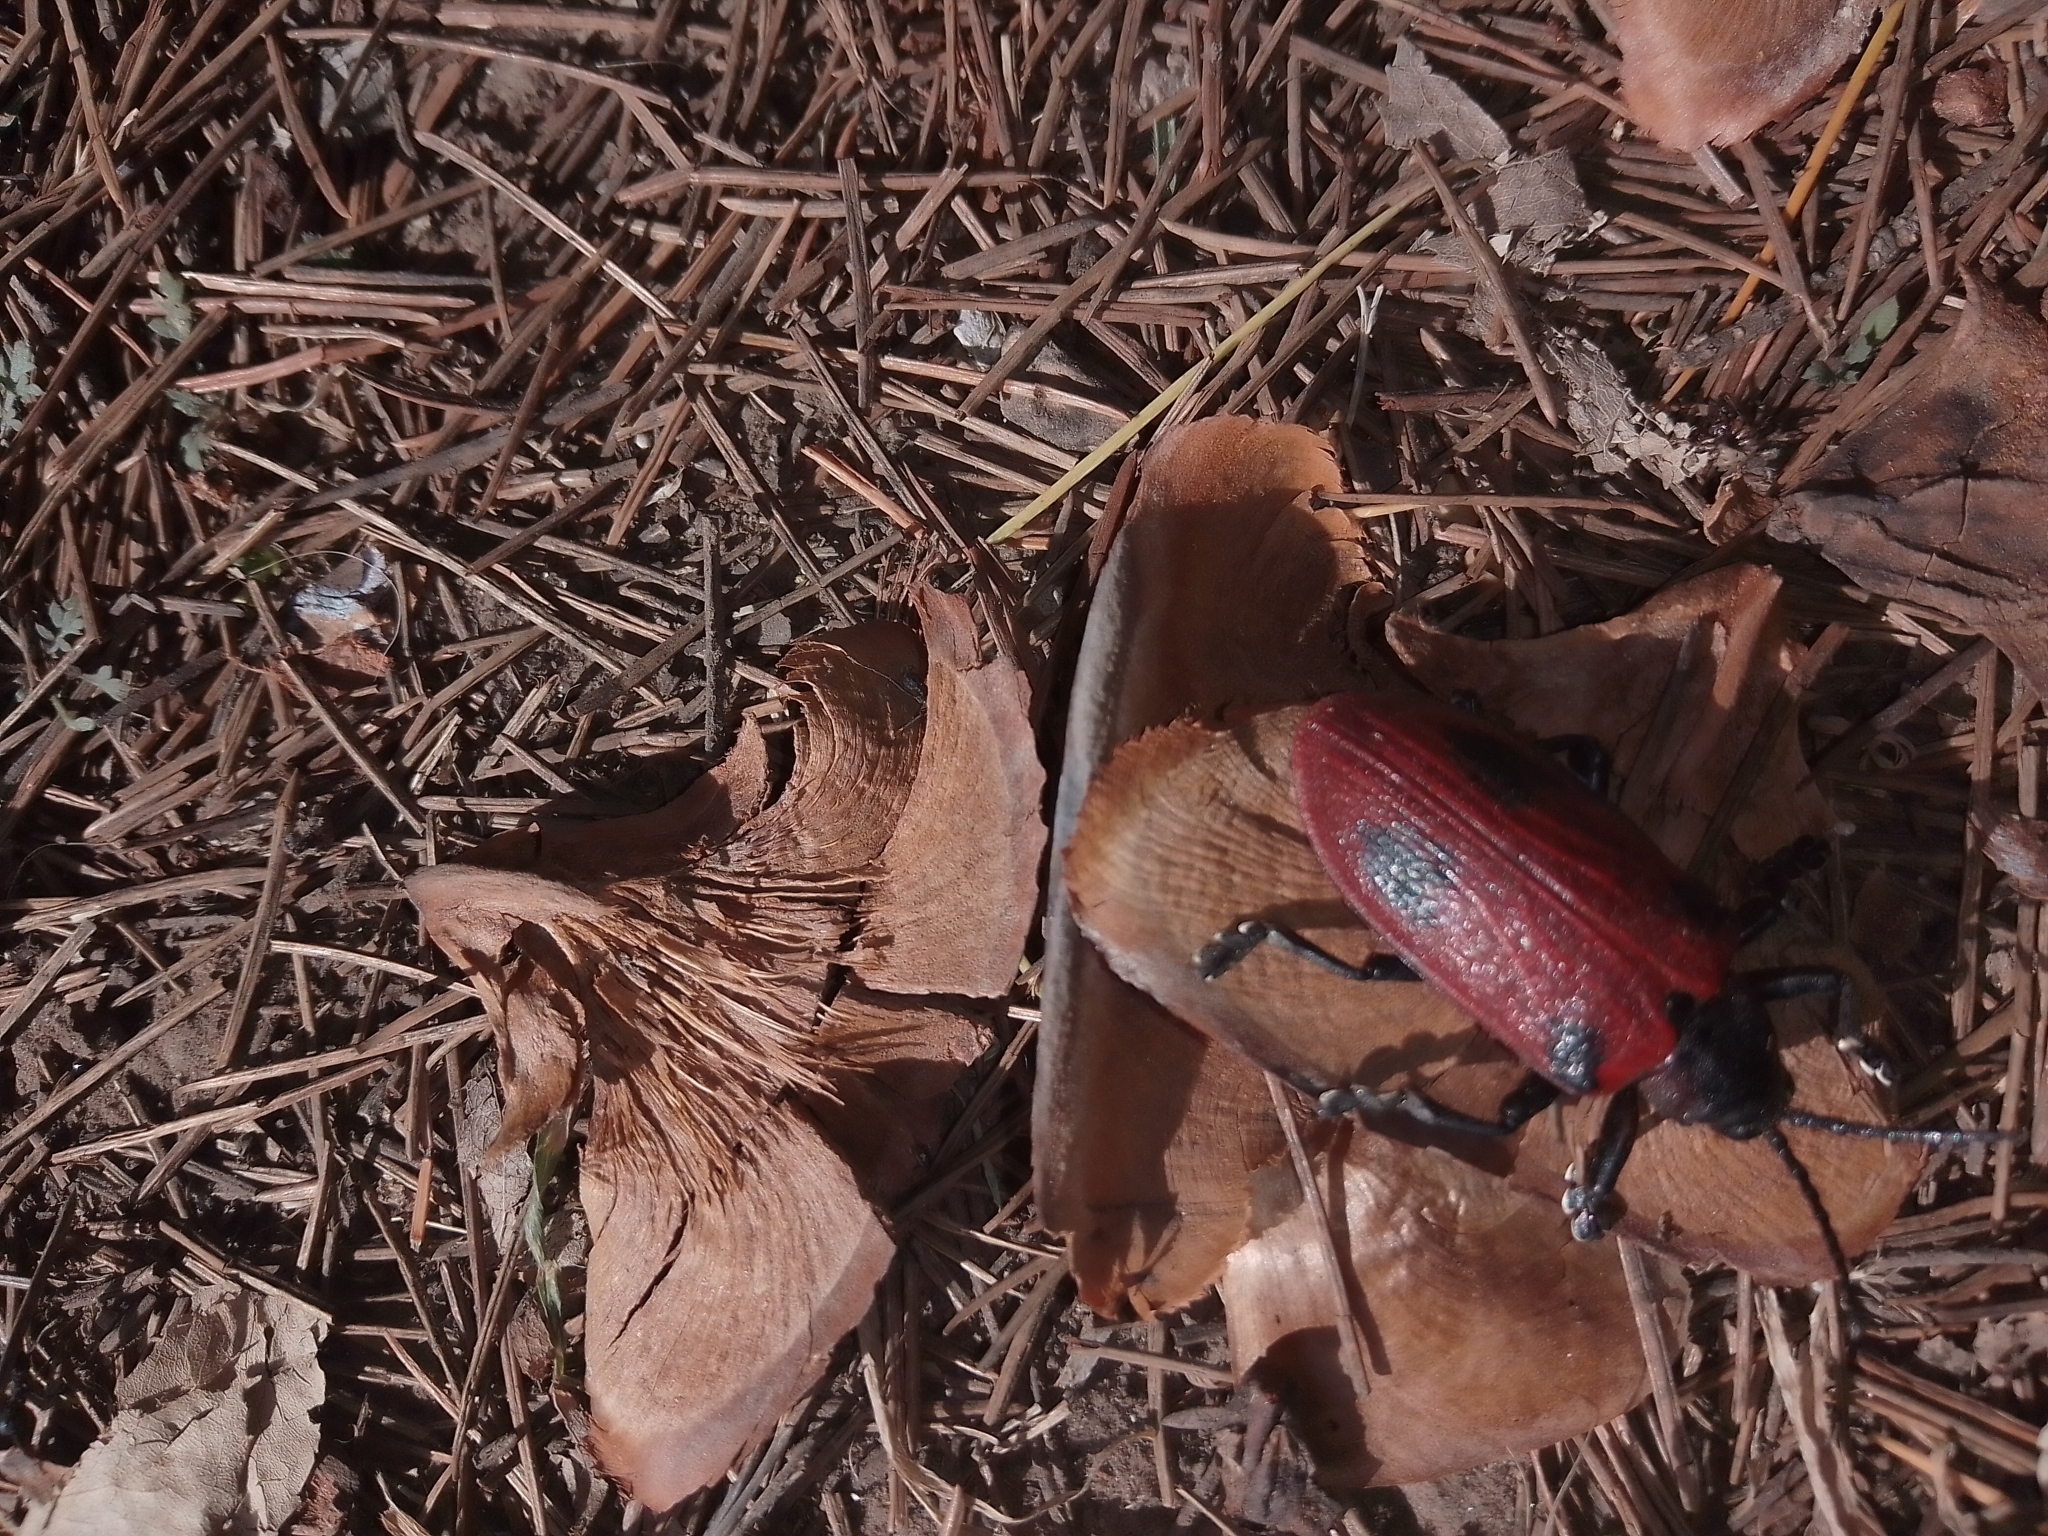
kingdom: Animalia
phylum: Arthropoda
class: Insecta
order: Coleoptera
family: Chrysomelidae
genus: Coraliomela
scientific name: Coraliomela quadrimaculata
